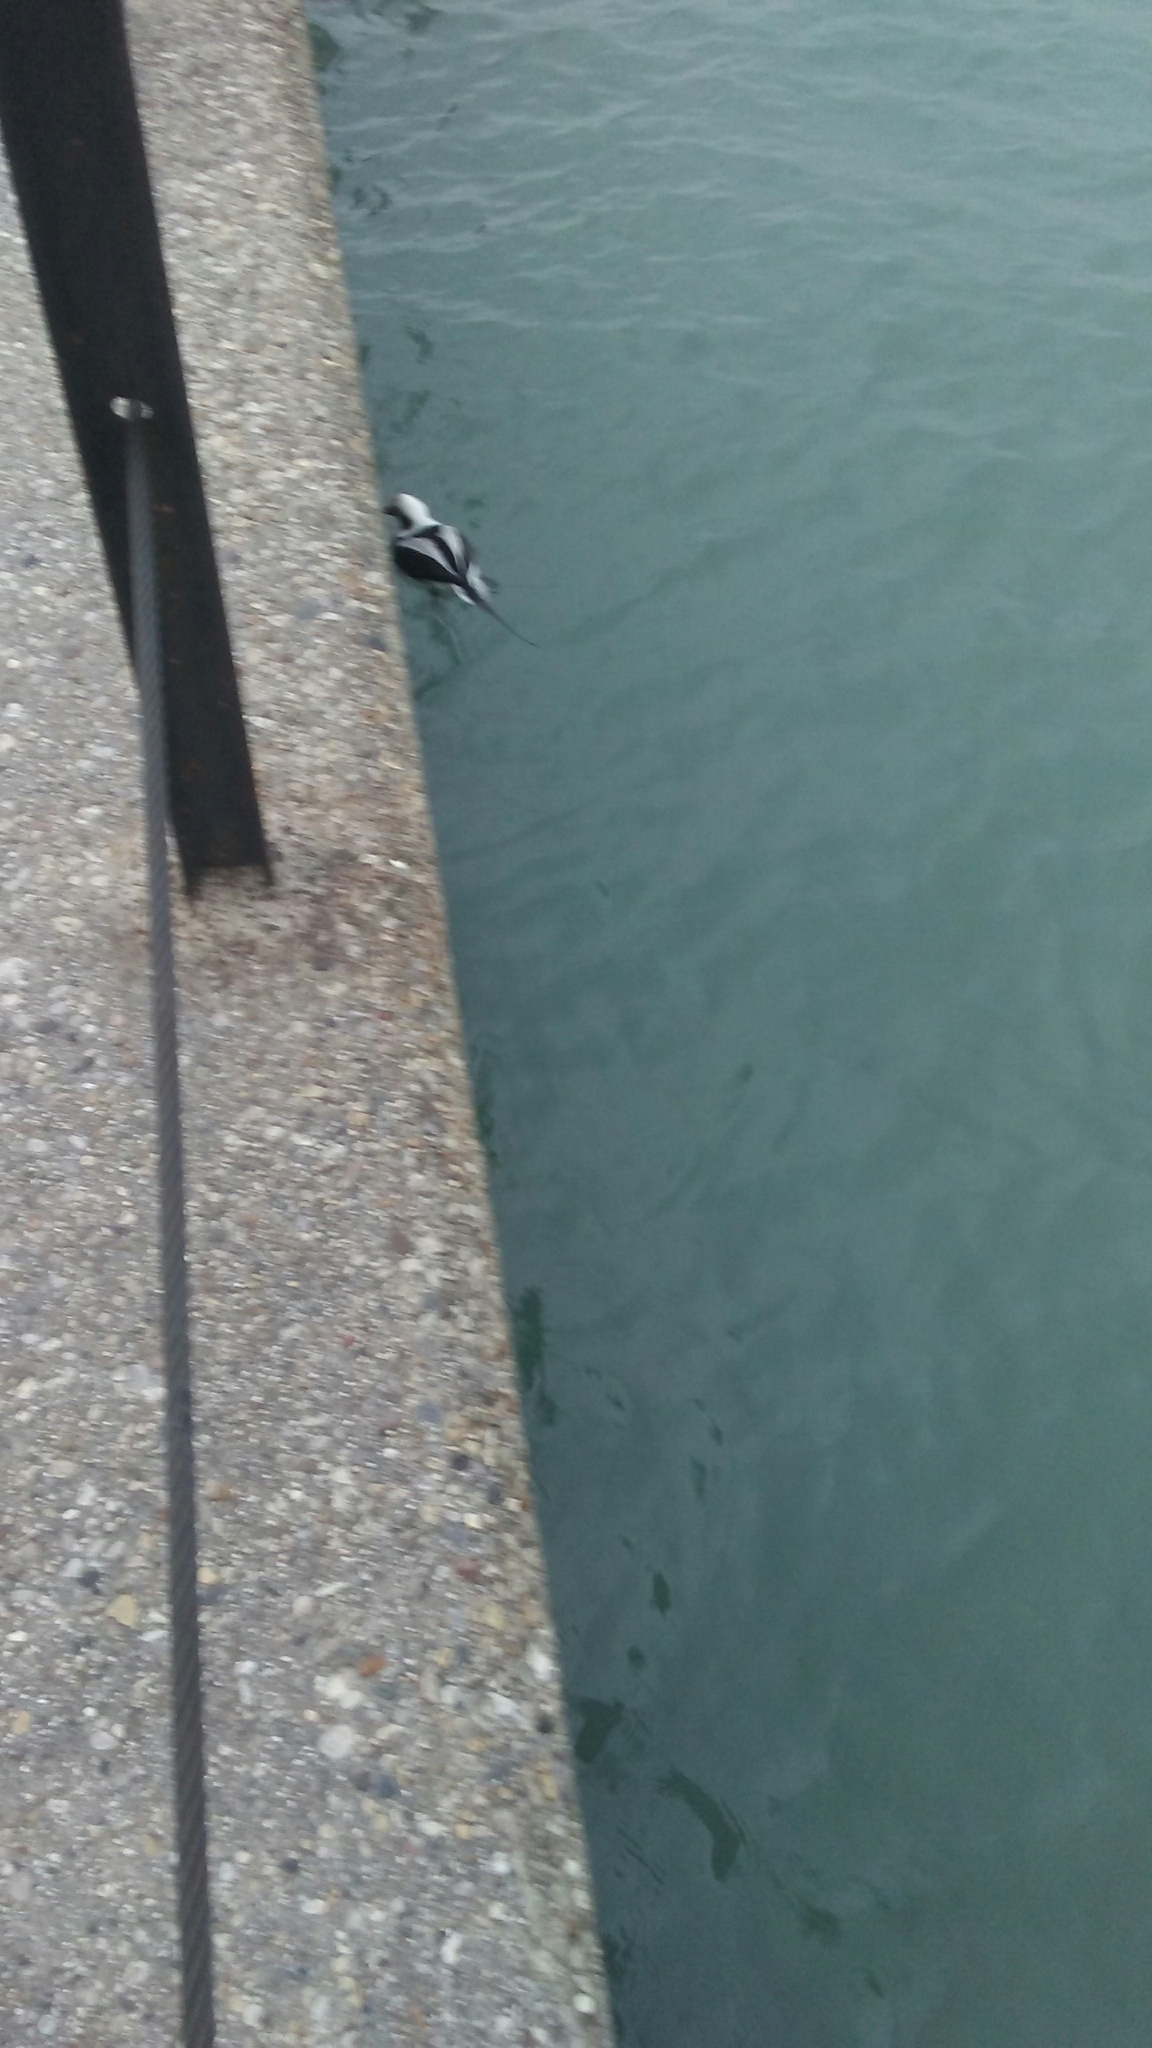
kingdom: Animalia
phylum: Chordata
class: Aves
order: Anseriformes
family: Anatidae
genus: Clangula
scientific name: Clangula hyemalis
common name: Long-tailed duck
